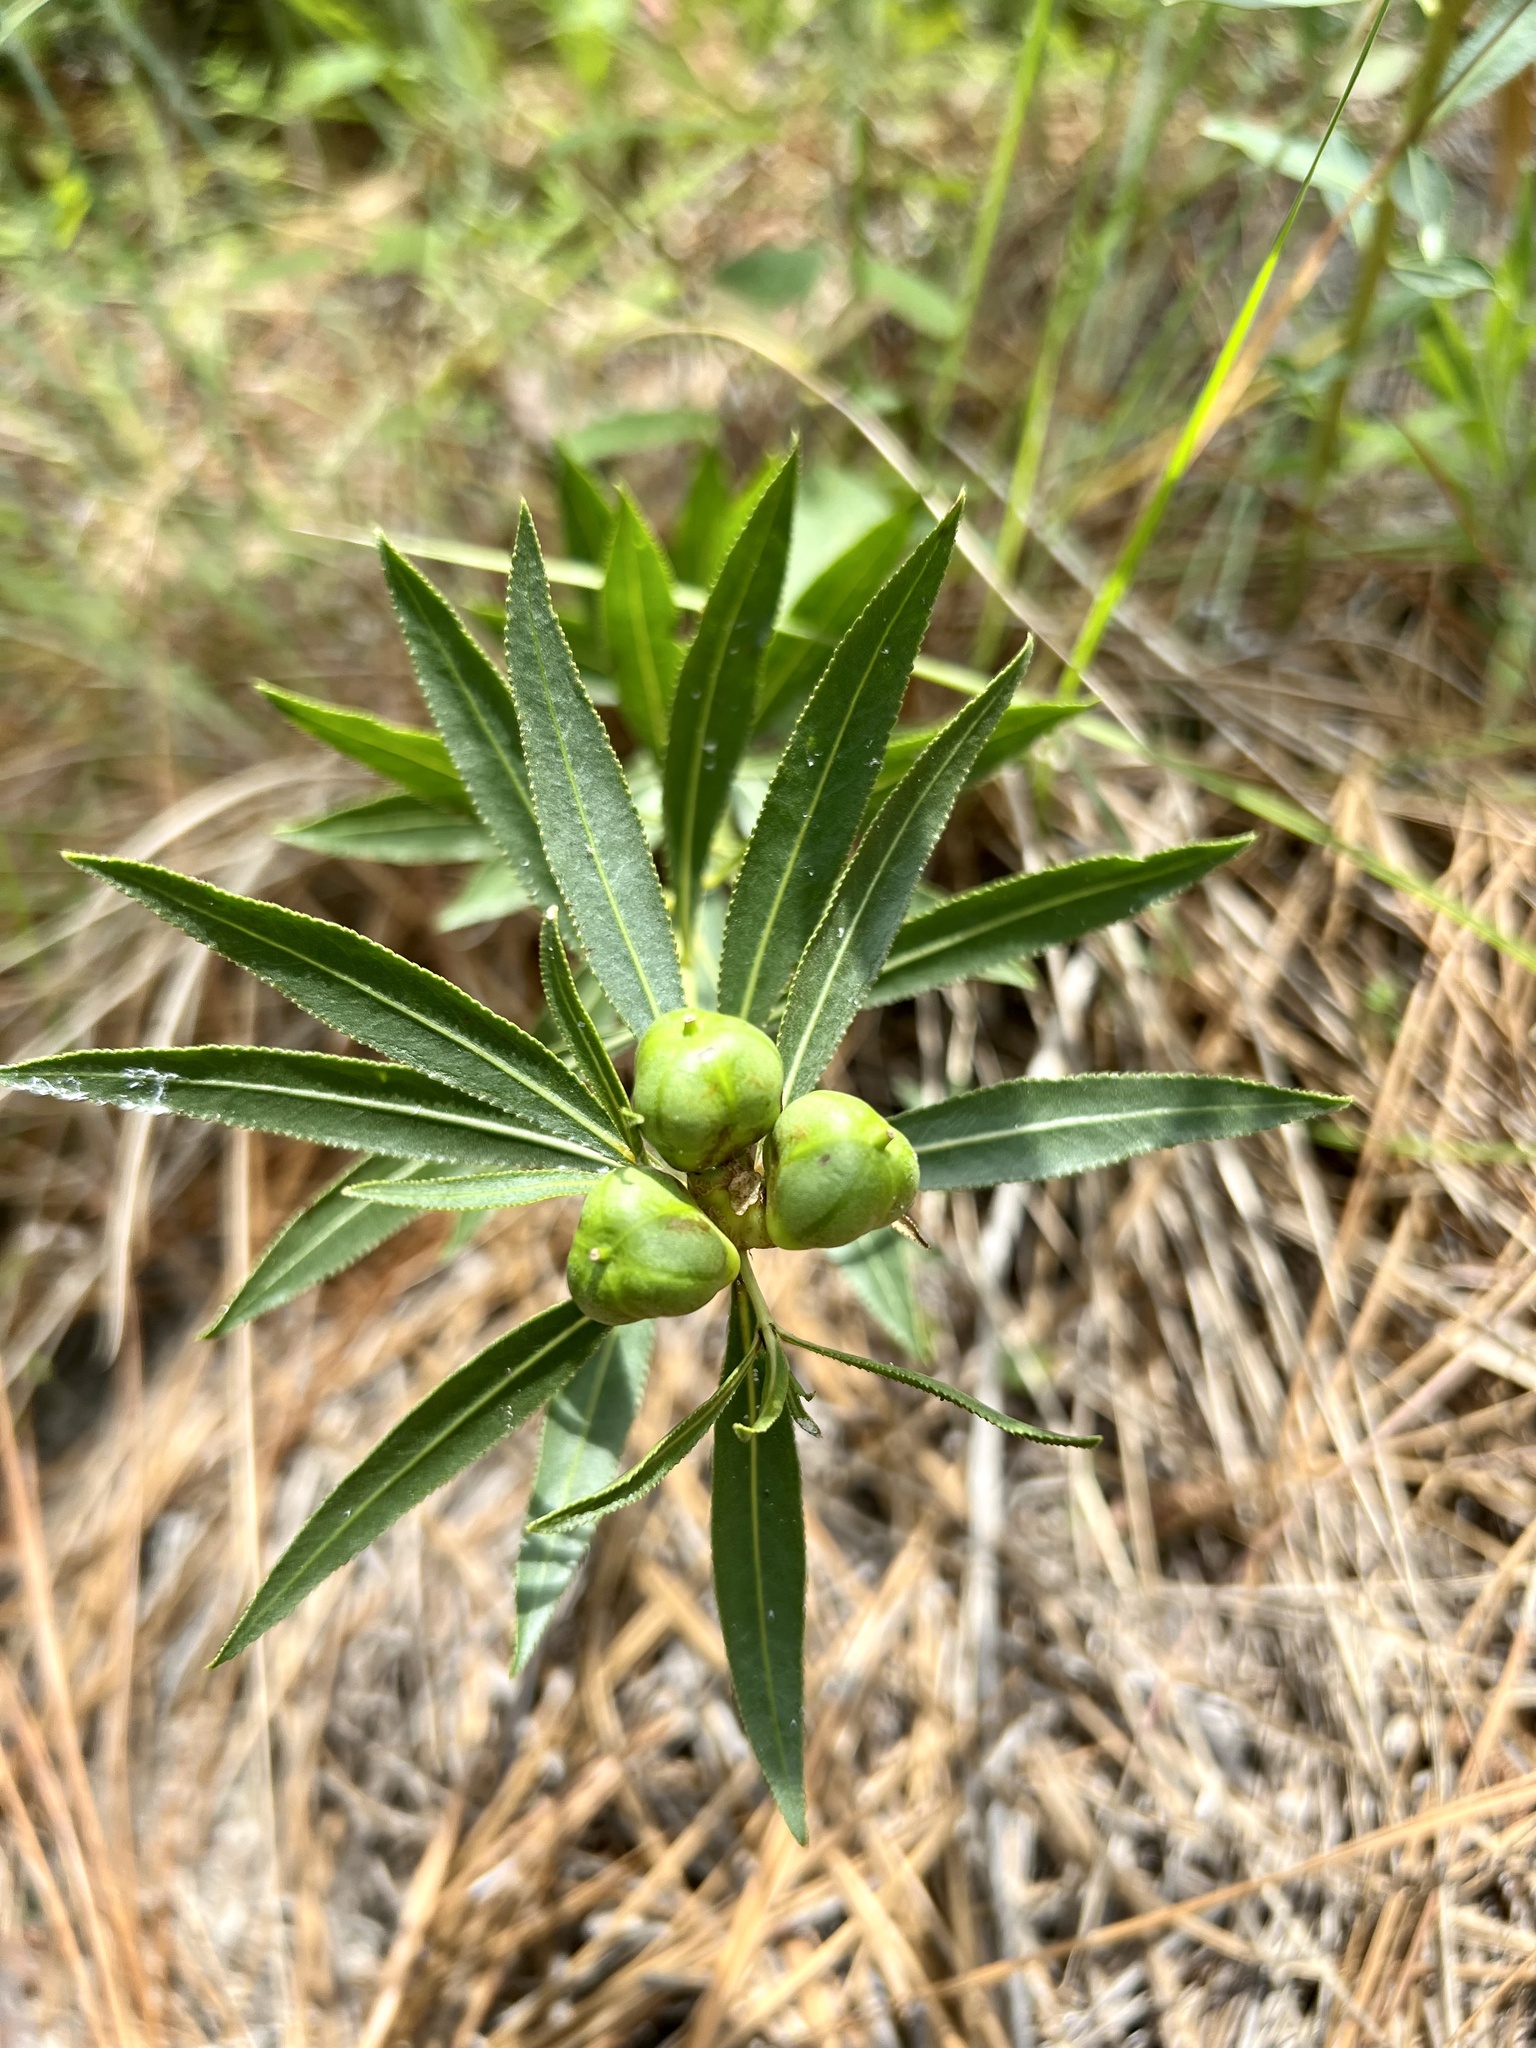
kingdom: Plantae
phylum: Tracheophyta
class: Magnoliopsida
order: Malpighiales
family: Euphorbiaceae
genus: Stillingia
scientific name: Stillingia sylvatica
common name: Queen's-delight
